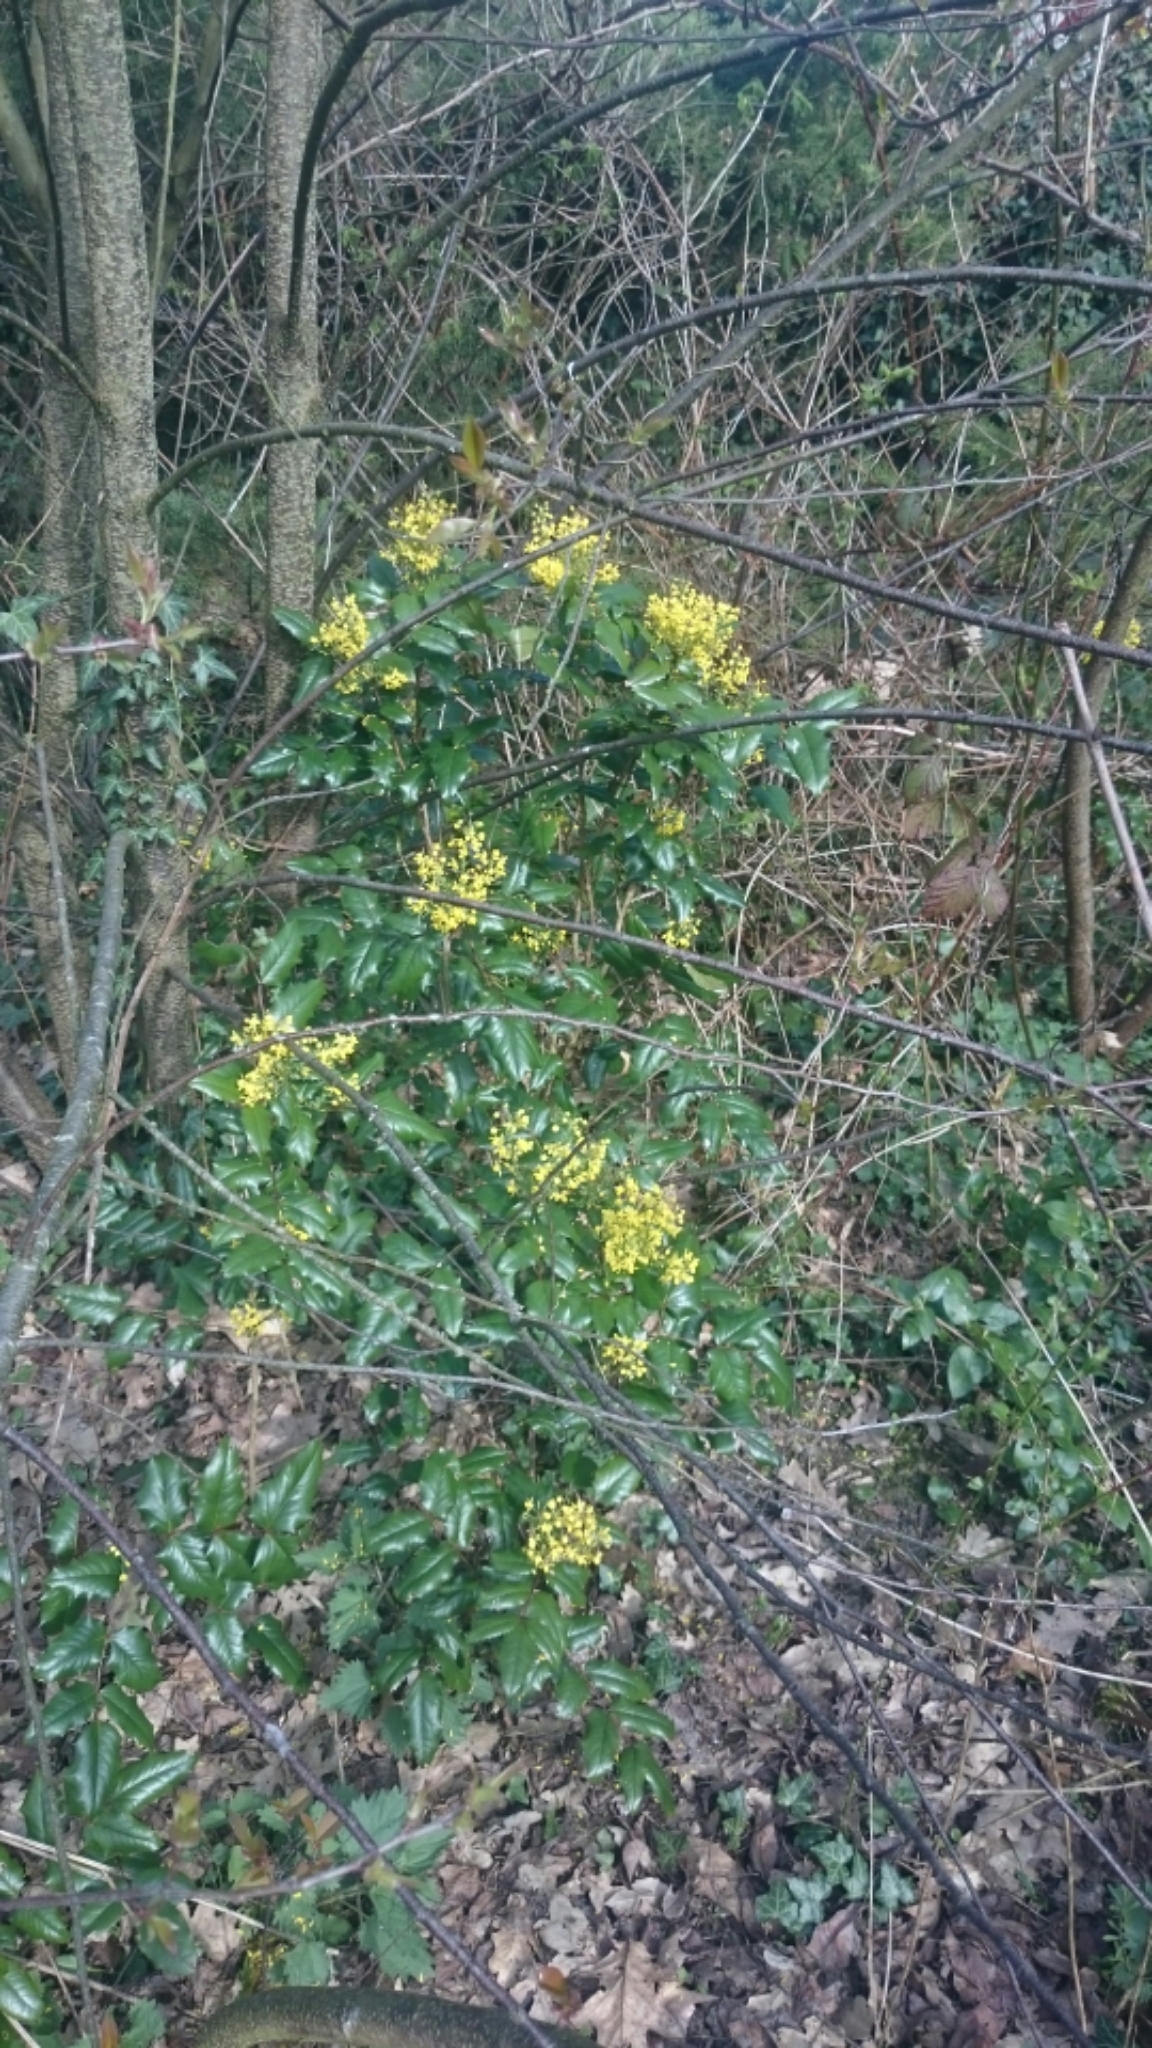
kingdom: Plantae
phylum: Tracheophyta
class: Magnoliopsida
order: Ranunculales
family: Berberidaceae
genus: Mahonia
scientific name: Mahonia aquifolium
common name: Oregon-grape
